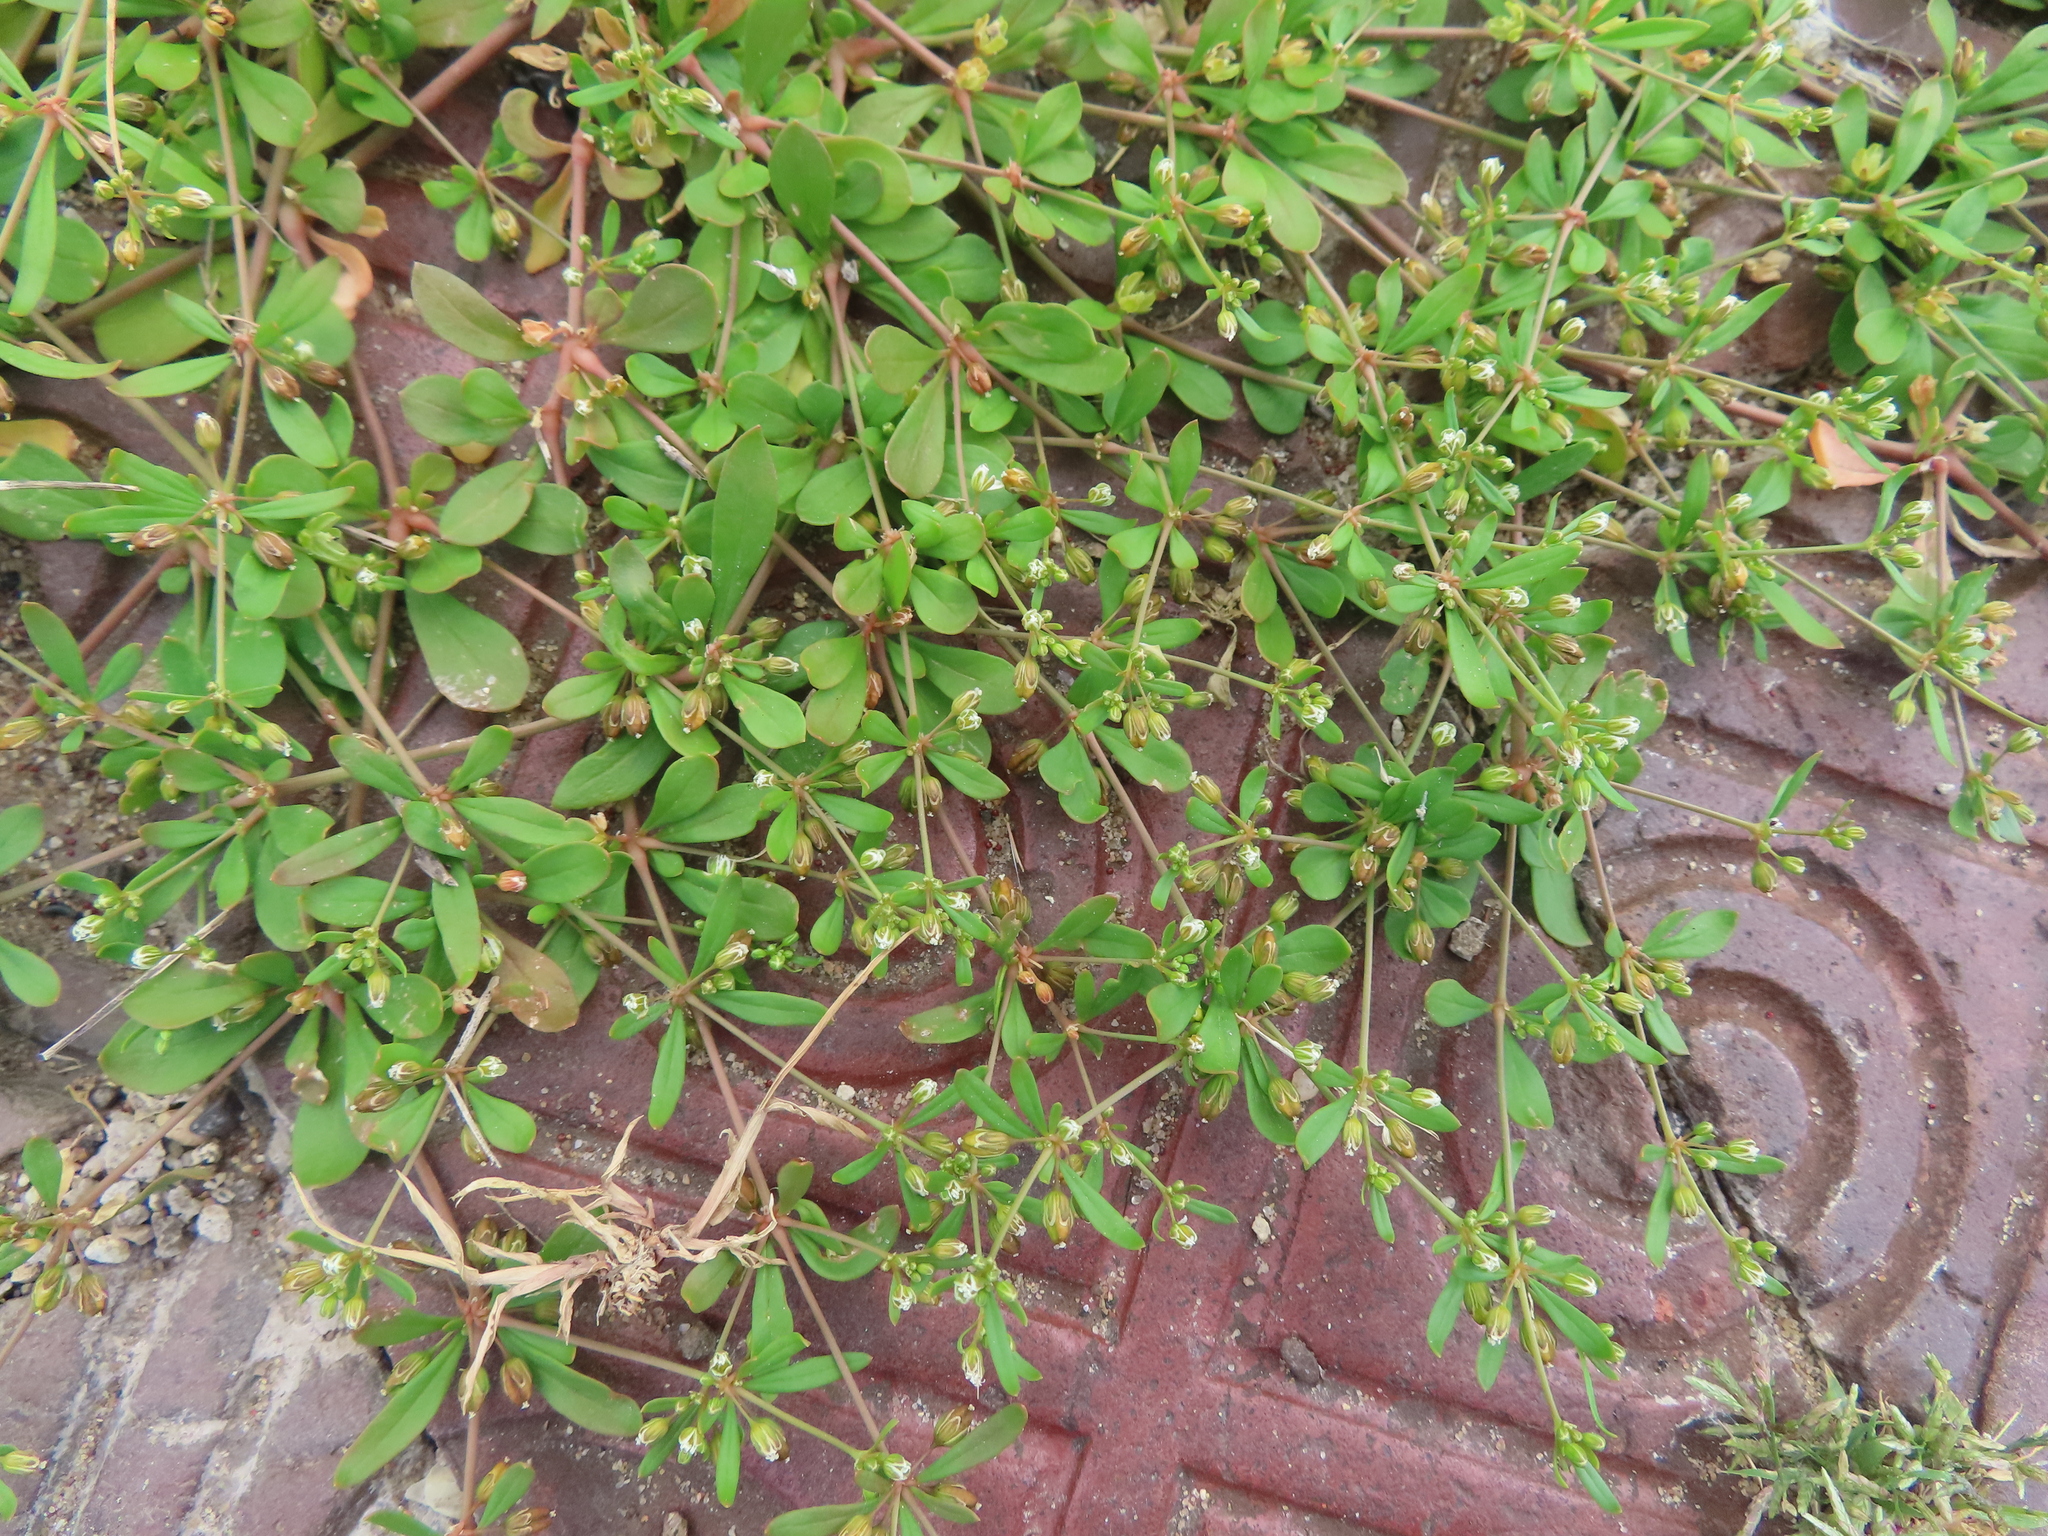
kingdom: Plantae
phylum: Tracheophyta
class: Magnoliopsida
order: Caryophyllales
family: Molluginaceae
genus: Mollugo
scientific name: Mollugo verticillata
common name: Green carpetweed
